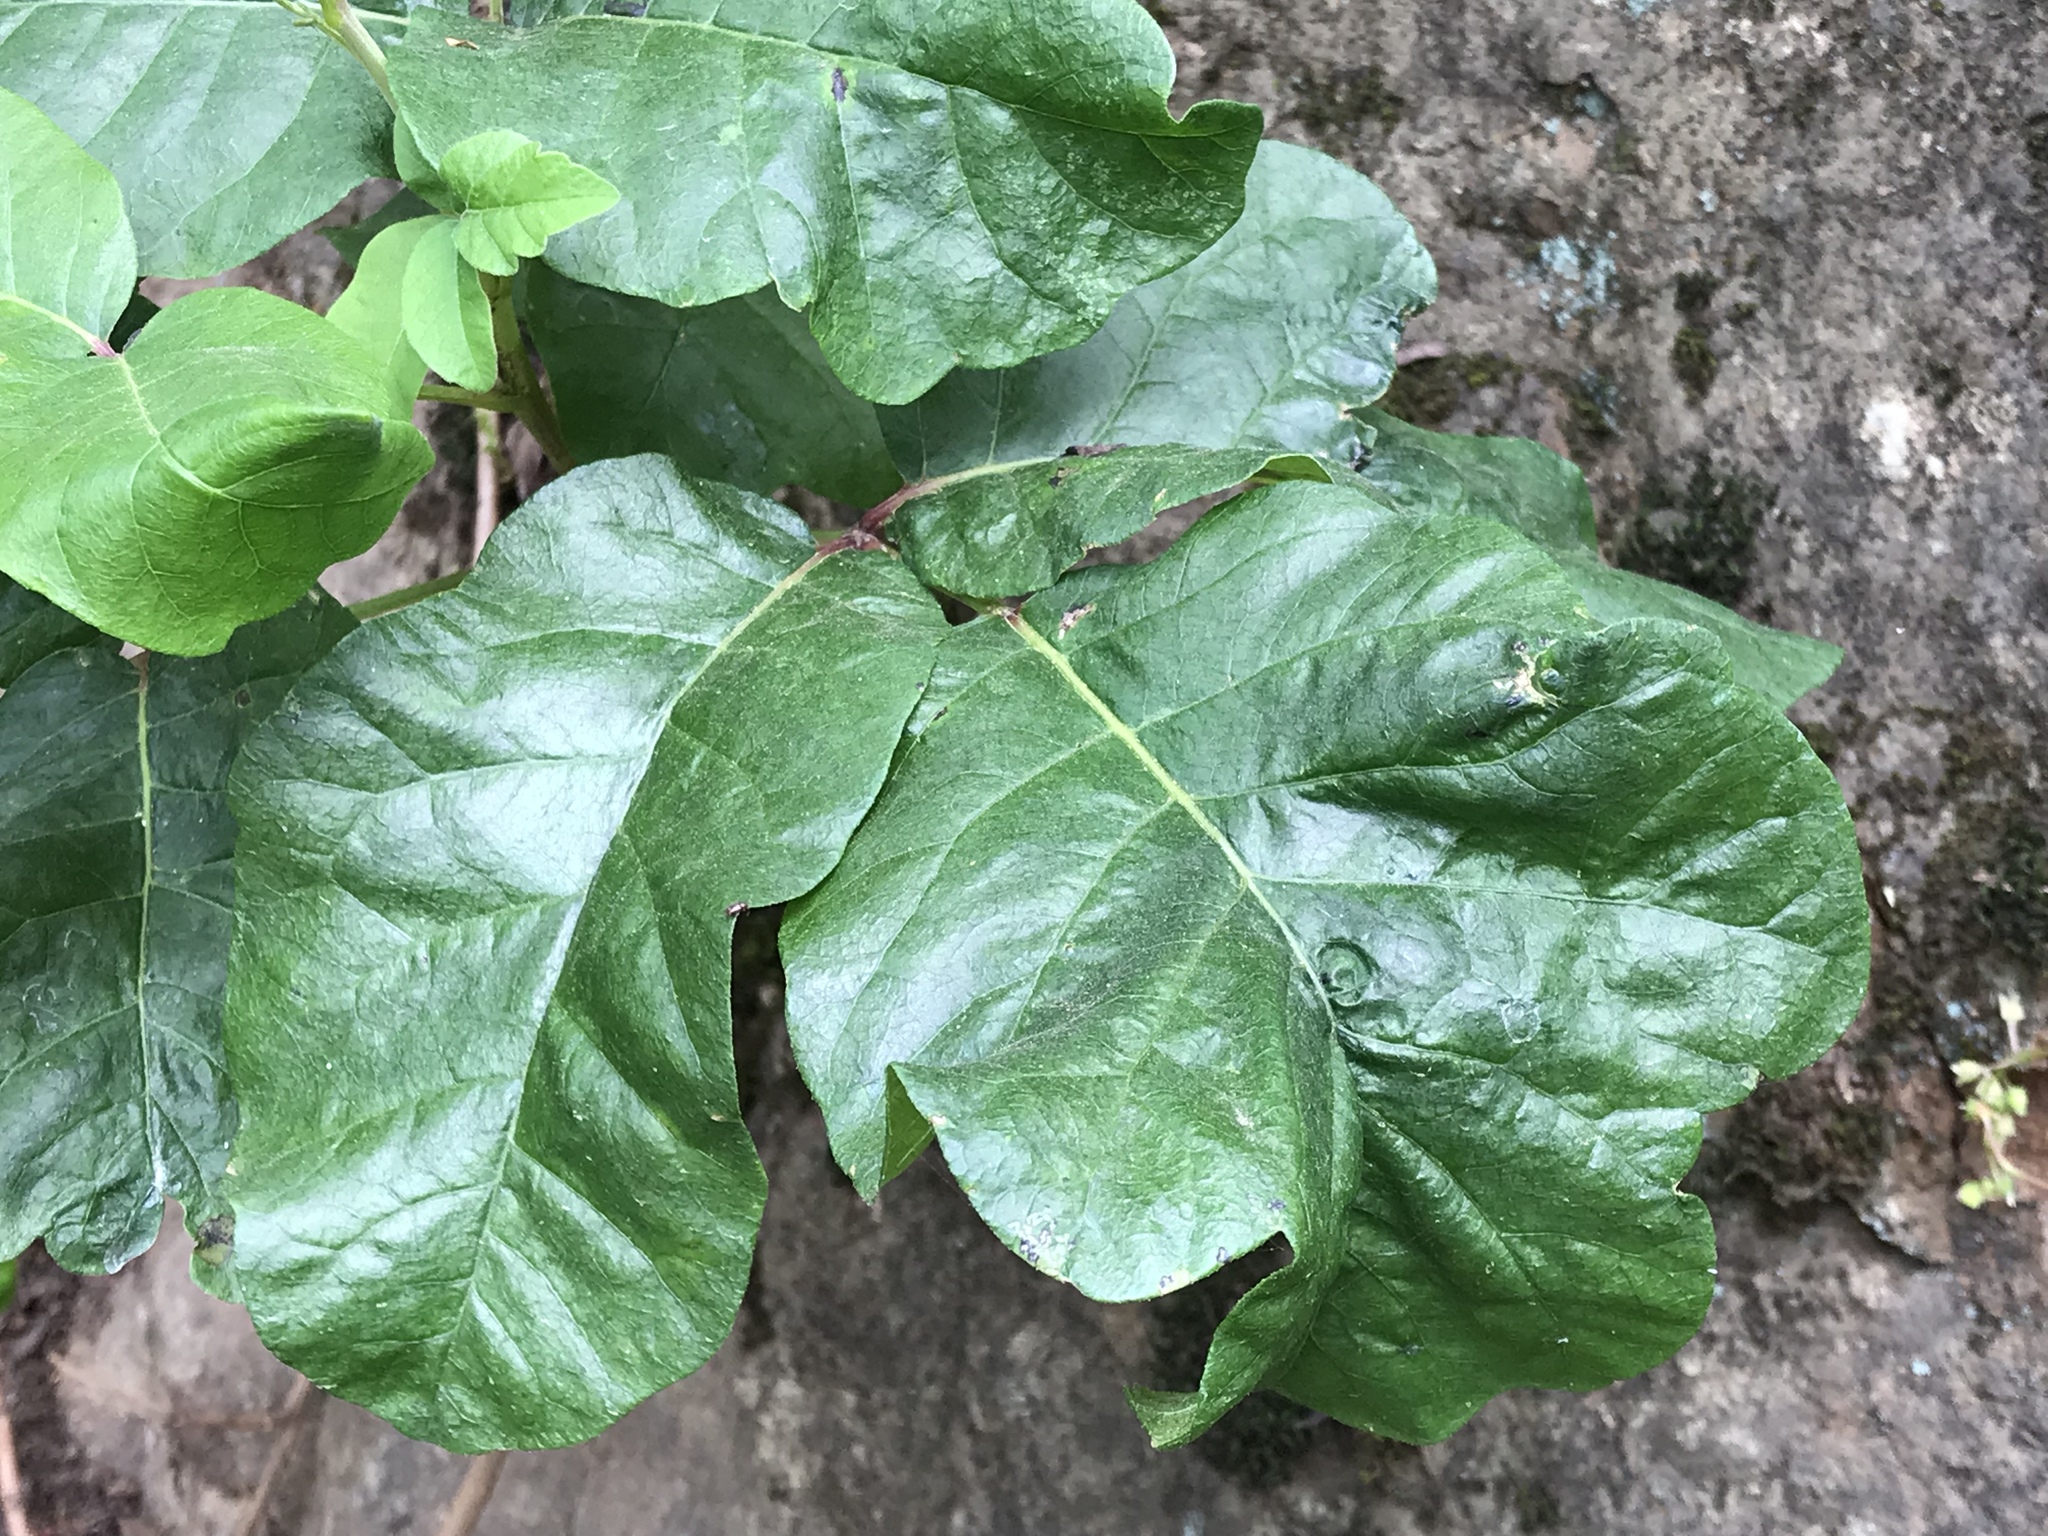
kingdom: Plantae
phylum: Tracheophyta
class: Magnoliopsida
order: Sapindales
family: Anacardiaceae
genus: Toxicodendron
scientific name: Toxicodendron diversilobum
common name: Pacific poison-oak
